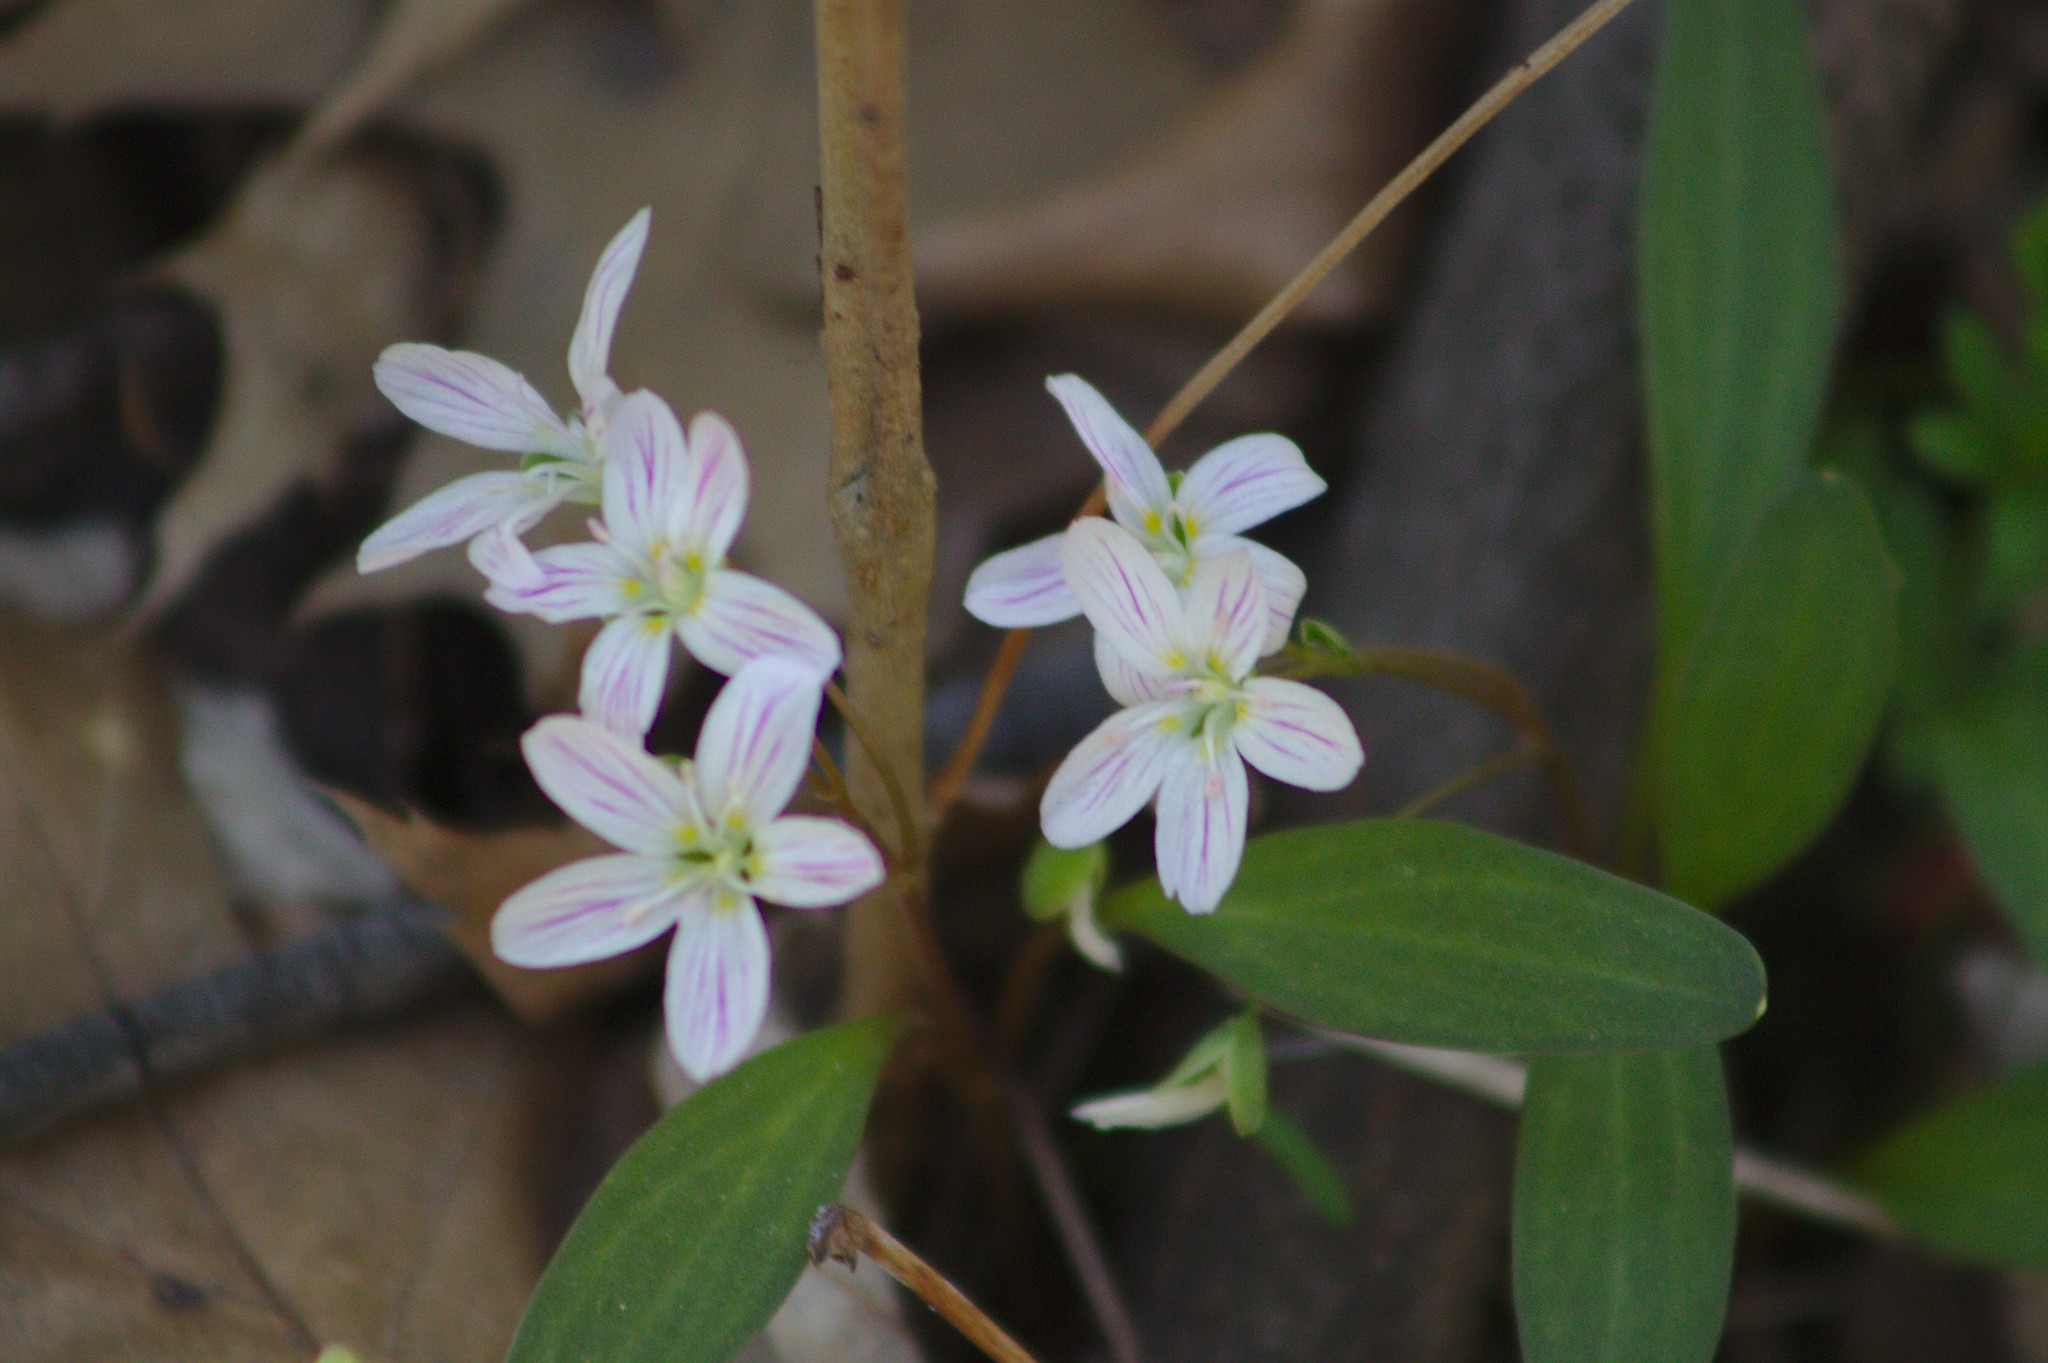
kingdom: Plantae
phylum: Tracheophyta
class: Magnoliopsida
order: Caryophyllales
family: Montiaceae
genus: Claytonia
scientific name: Claytonia caroliniana
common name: Carolina spring beauty
